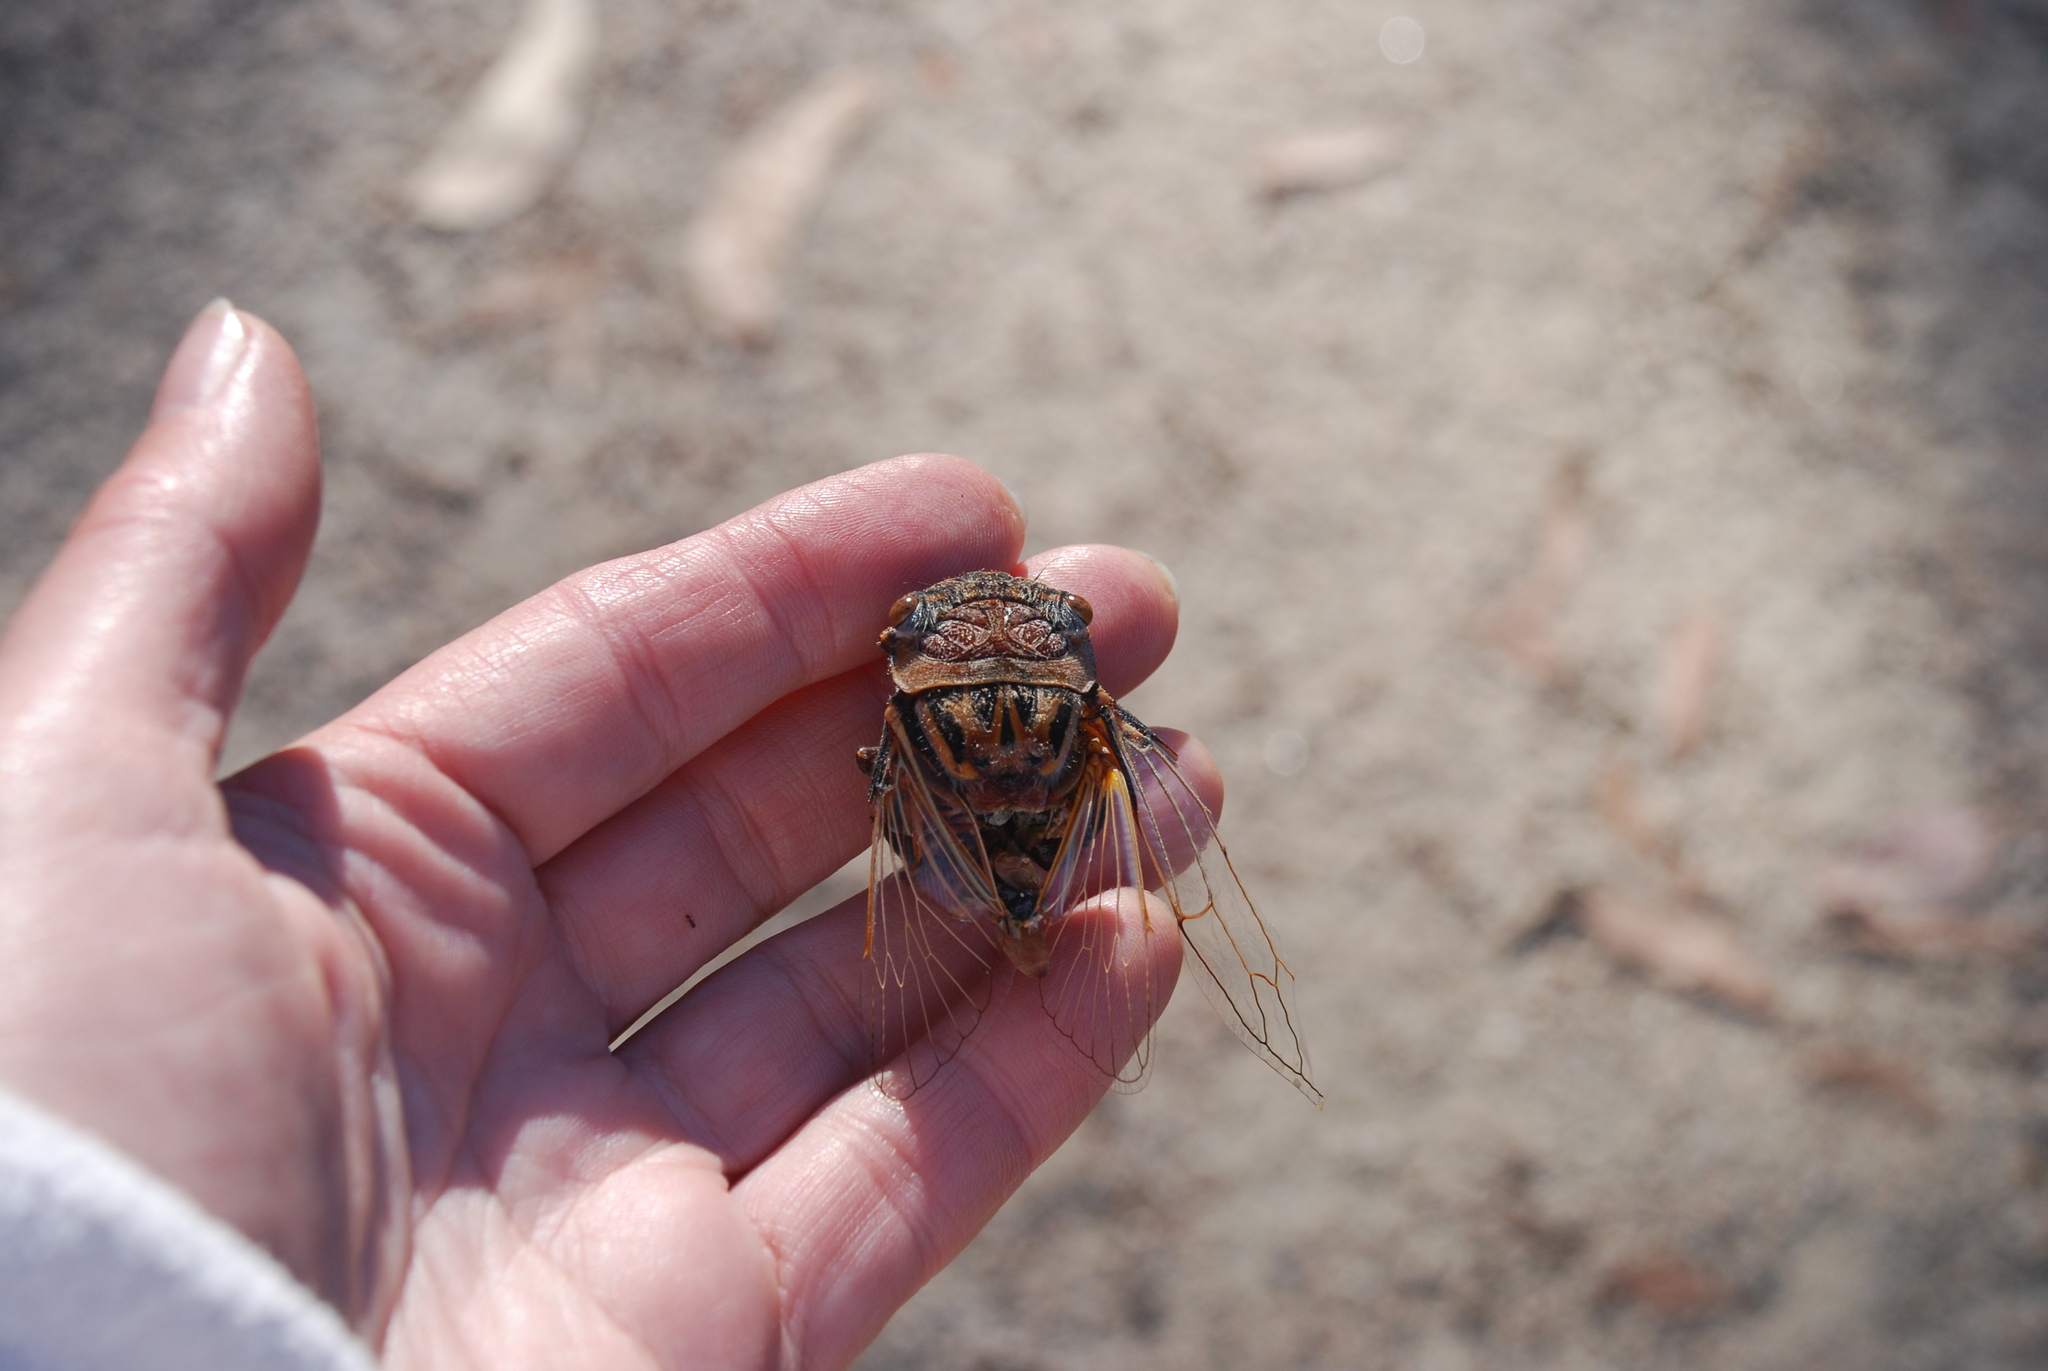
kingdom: Animalia
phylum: Arthropoda
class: Insecta
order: Hemiptera
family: Cicadidae
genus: Thopha
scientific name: Thopha saccata
